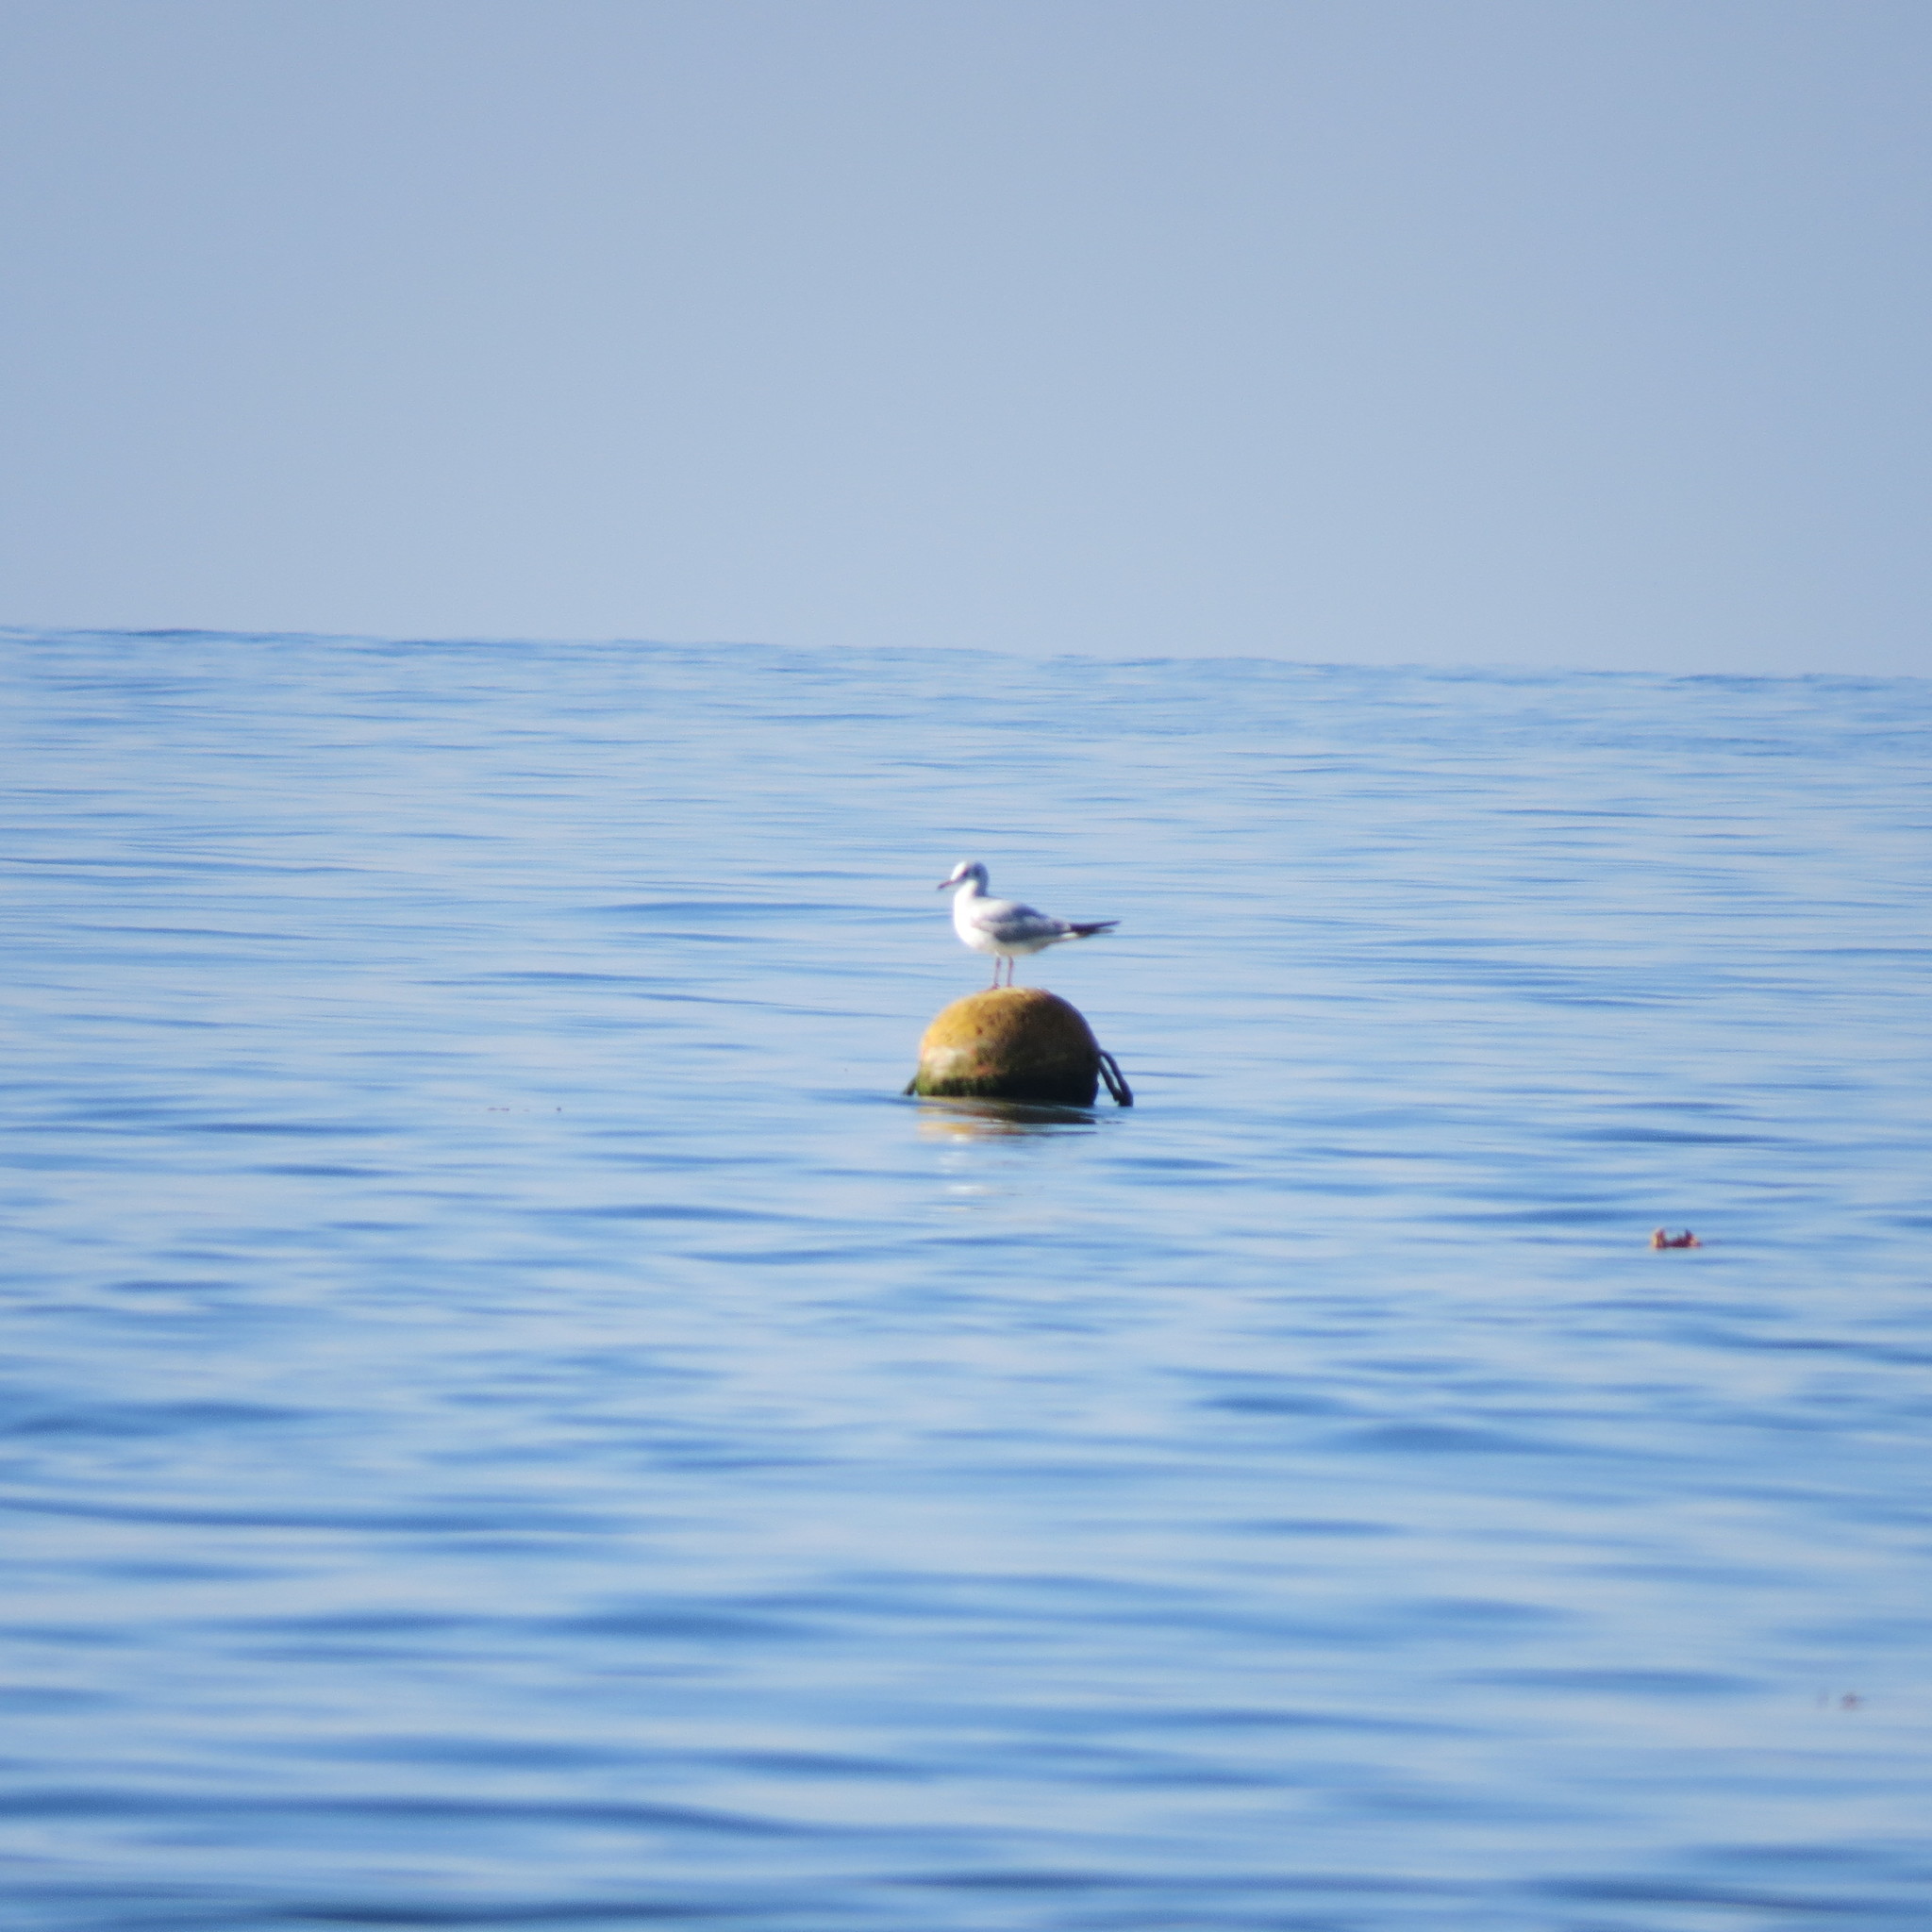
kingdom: Animalia
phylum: Chordata
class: Aves
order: Charadriiformes
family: Laridae
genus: Chroicocephalus
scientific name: Chroicocephalus ridibundus
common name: Black-headed gull
